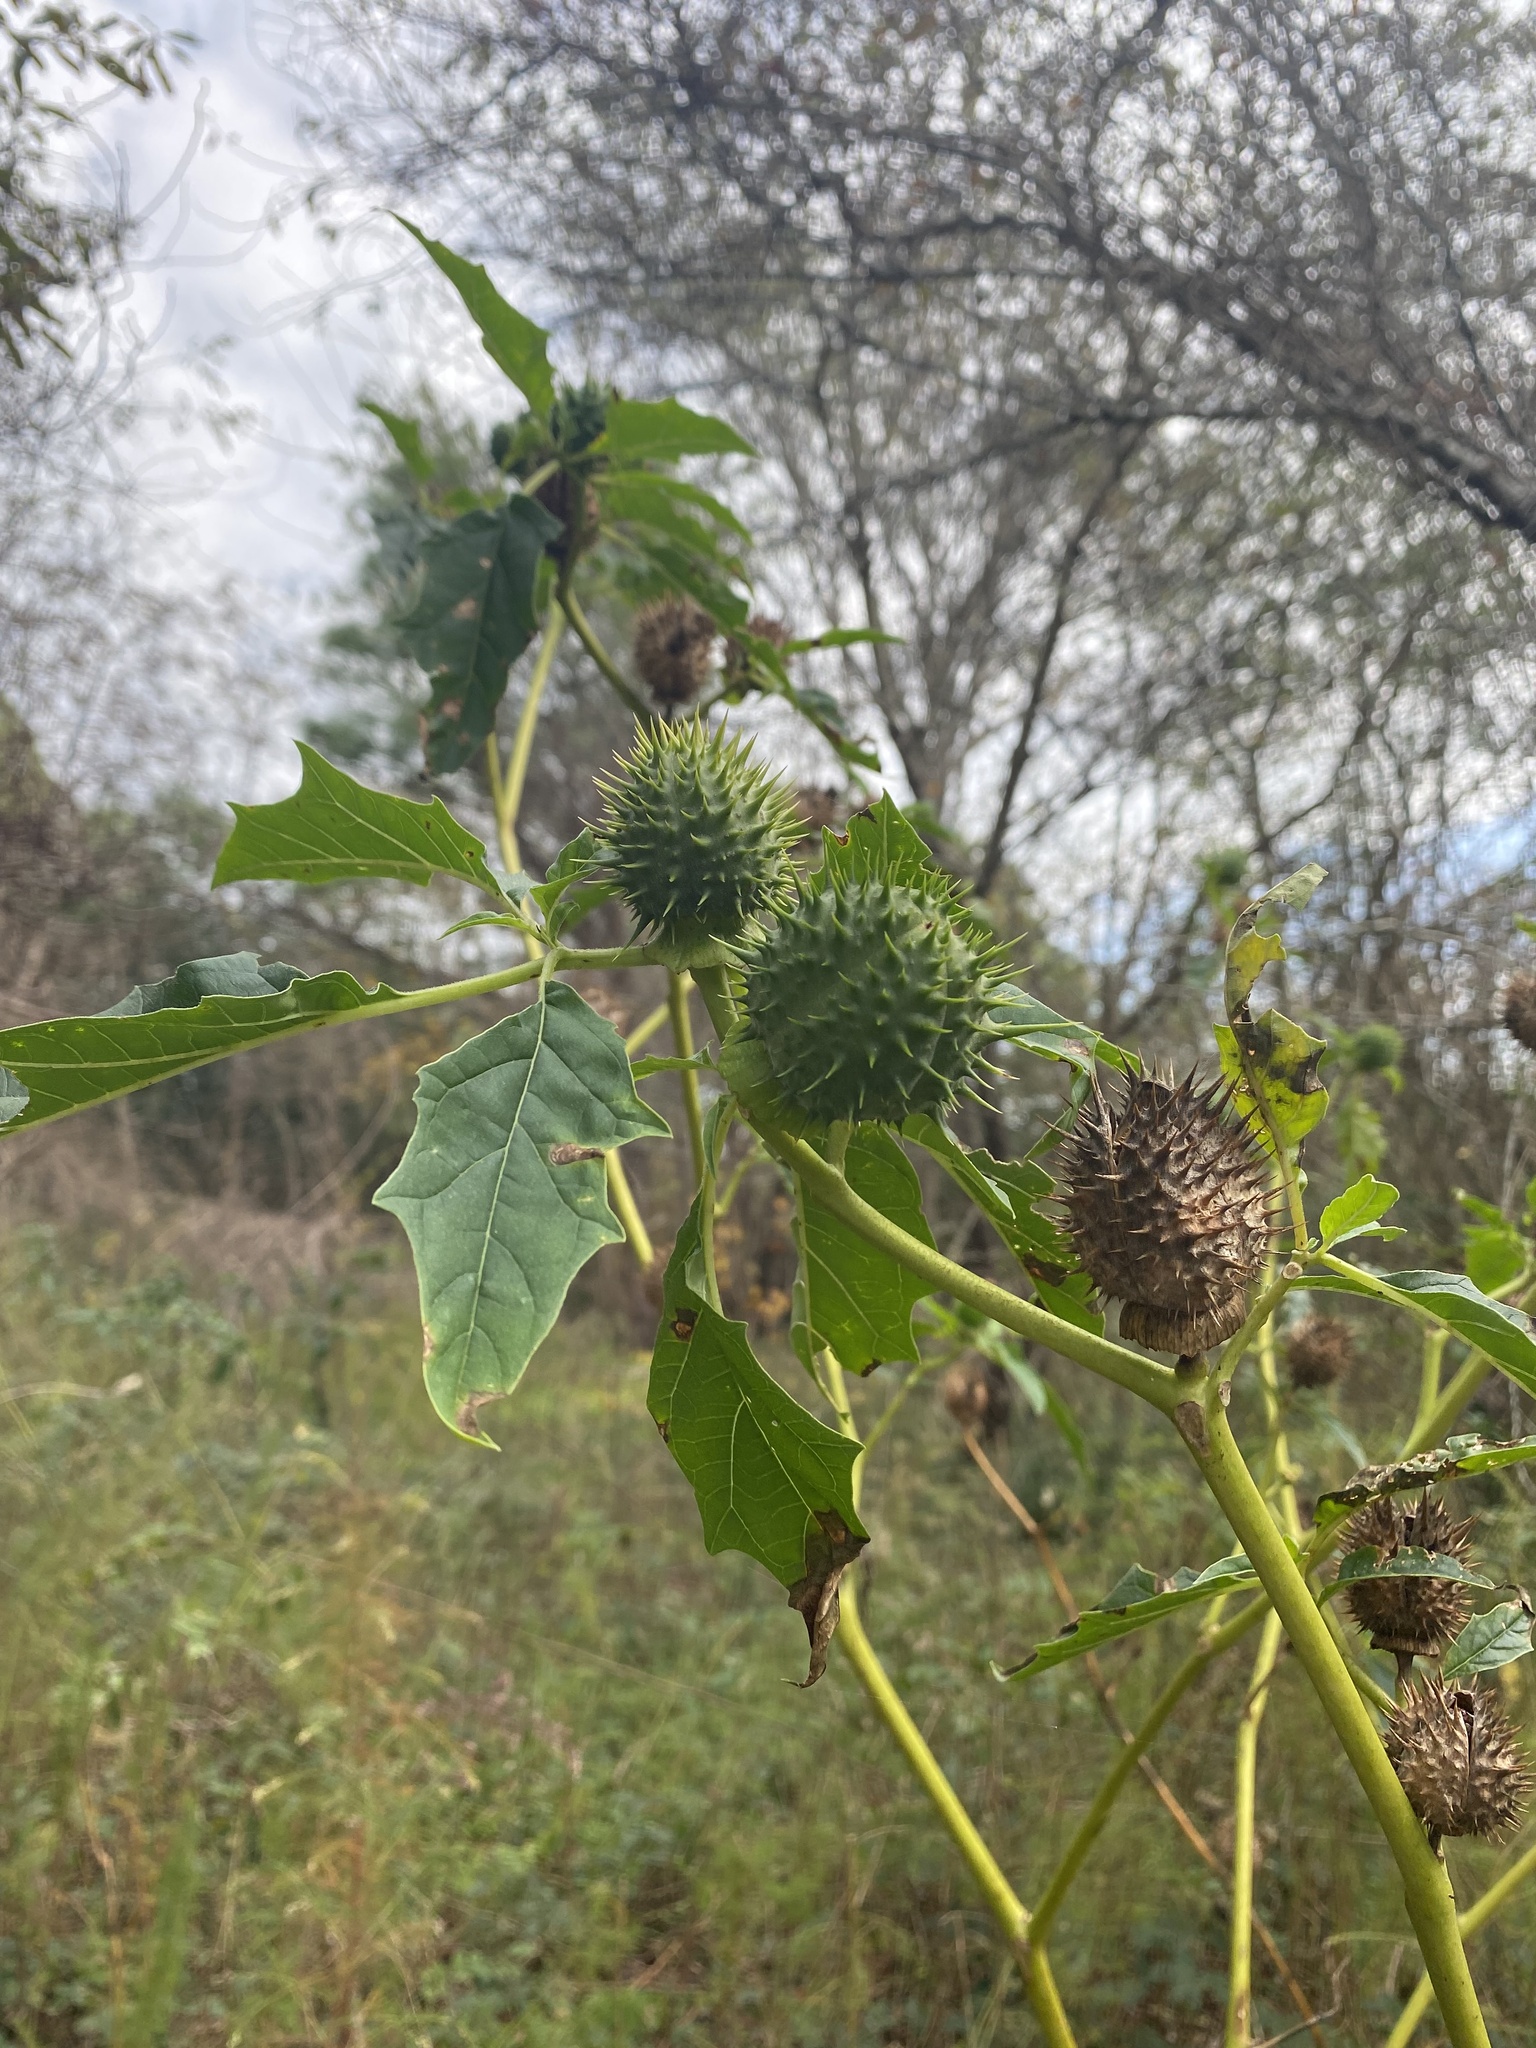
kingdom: Plantae
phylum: Tracheophyta
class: Magnoliopsida
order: Solanales
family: Solanaceae
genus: Datura
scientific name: Datura stramonium
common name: Thorn-apple
